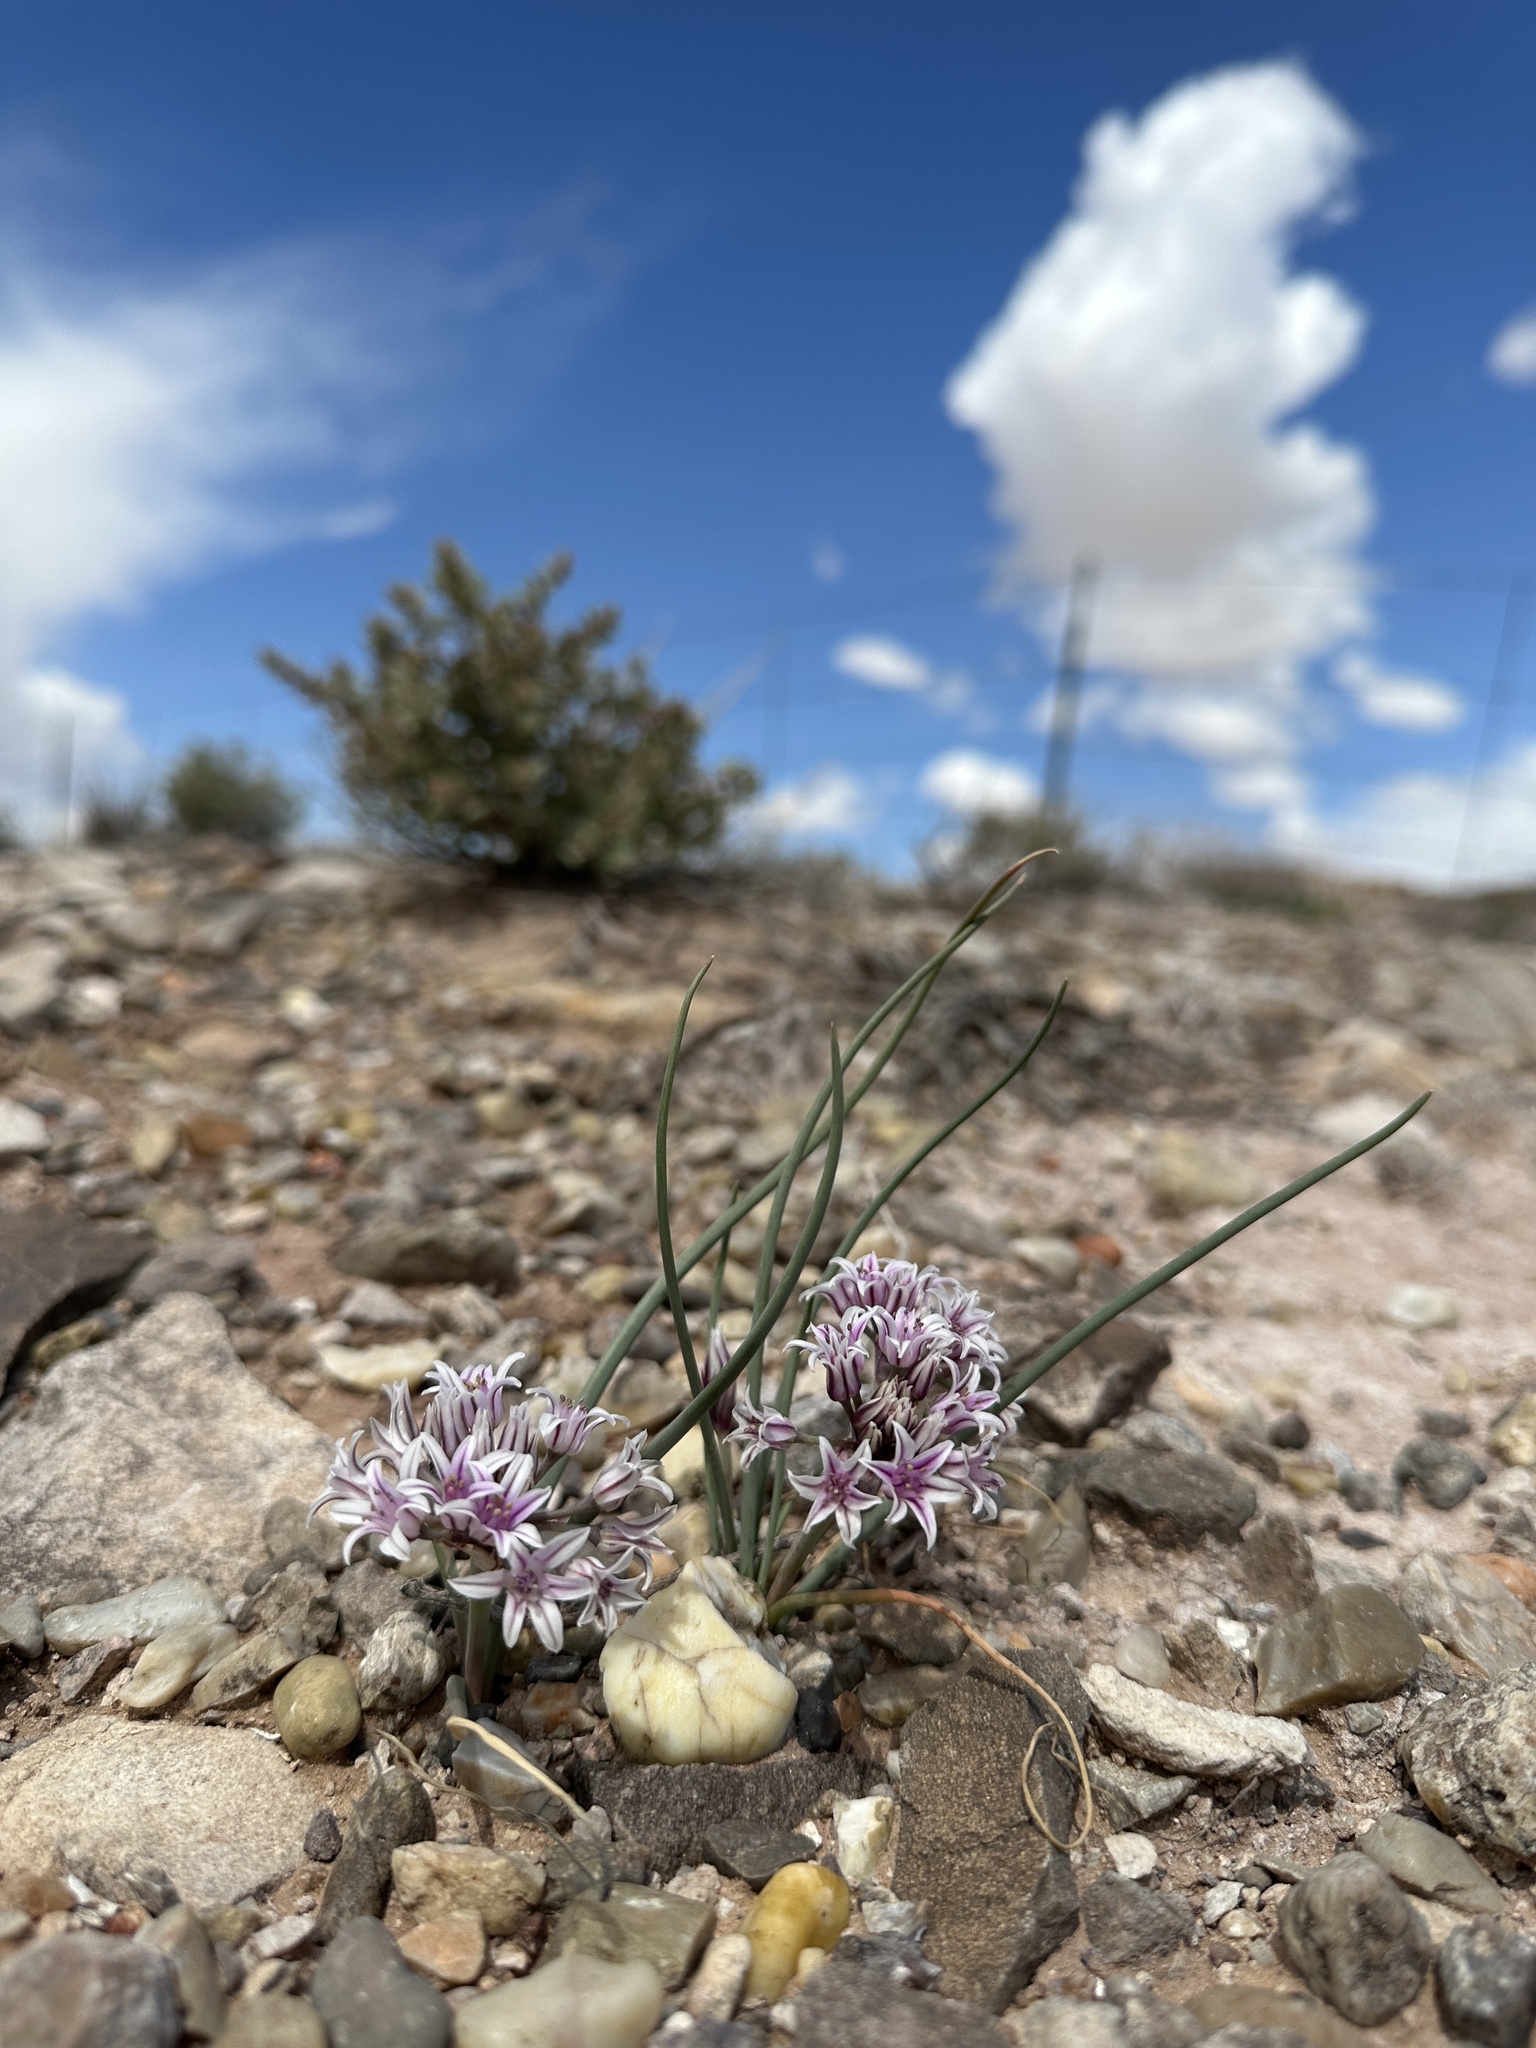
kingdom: Plantae
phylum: Tracheophyta
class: Liliopsida
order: Asparagales
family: Amaryllidaceae
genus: Allium
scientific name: Allium macropetalum
